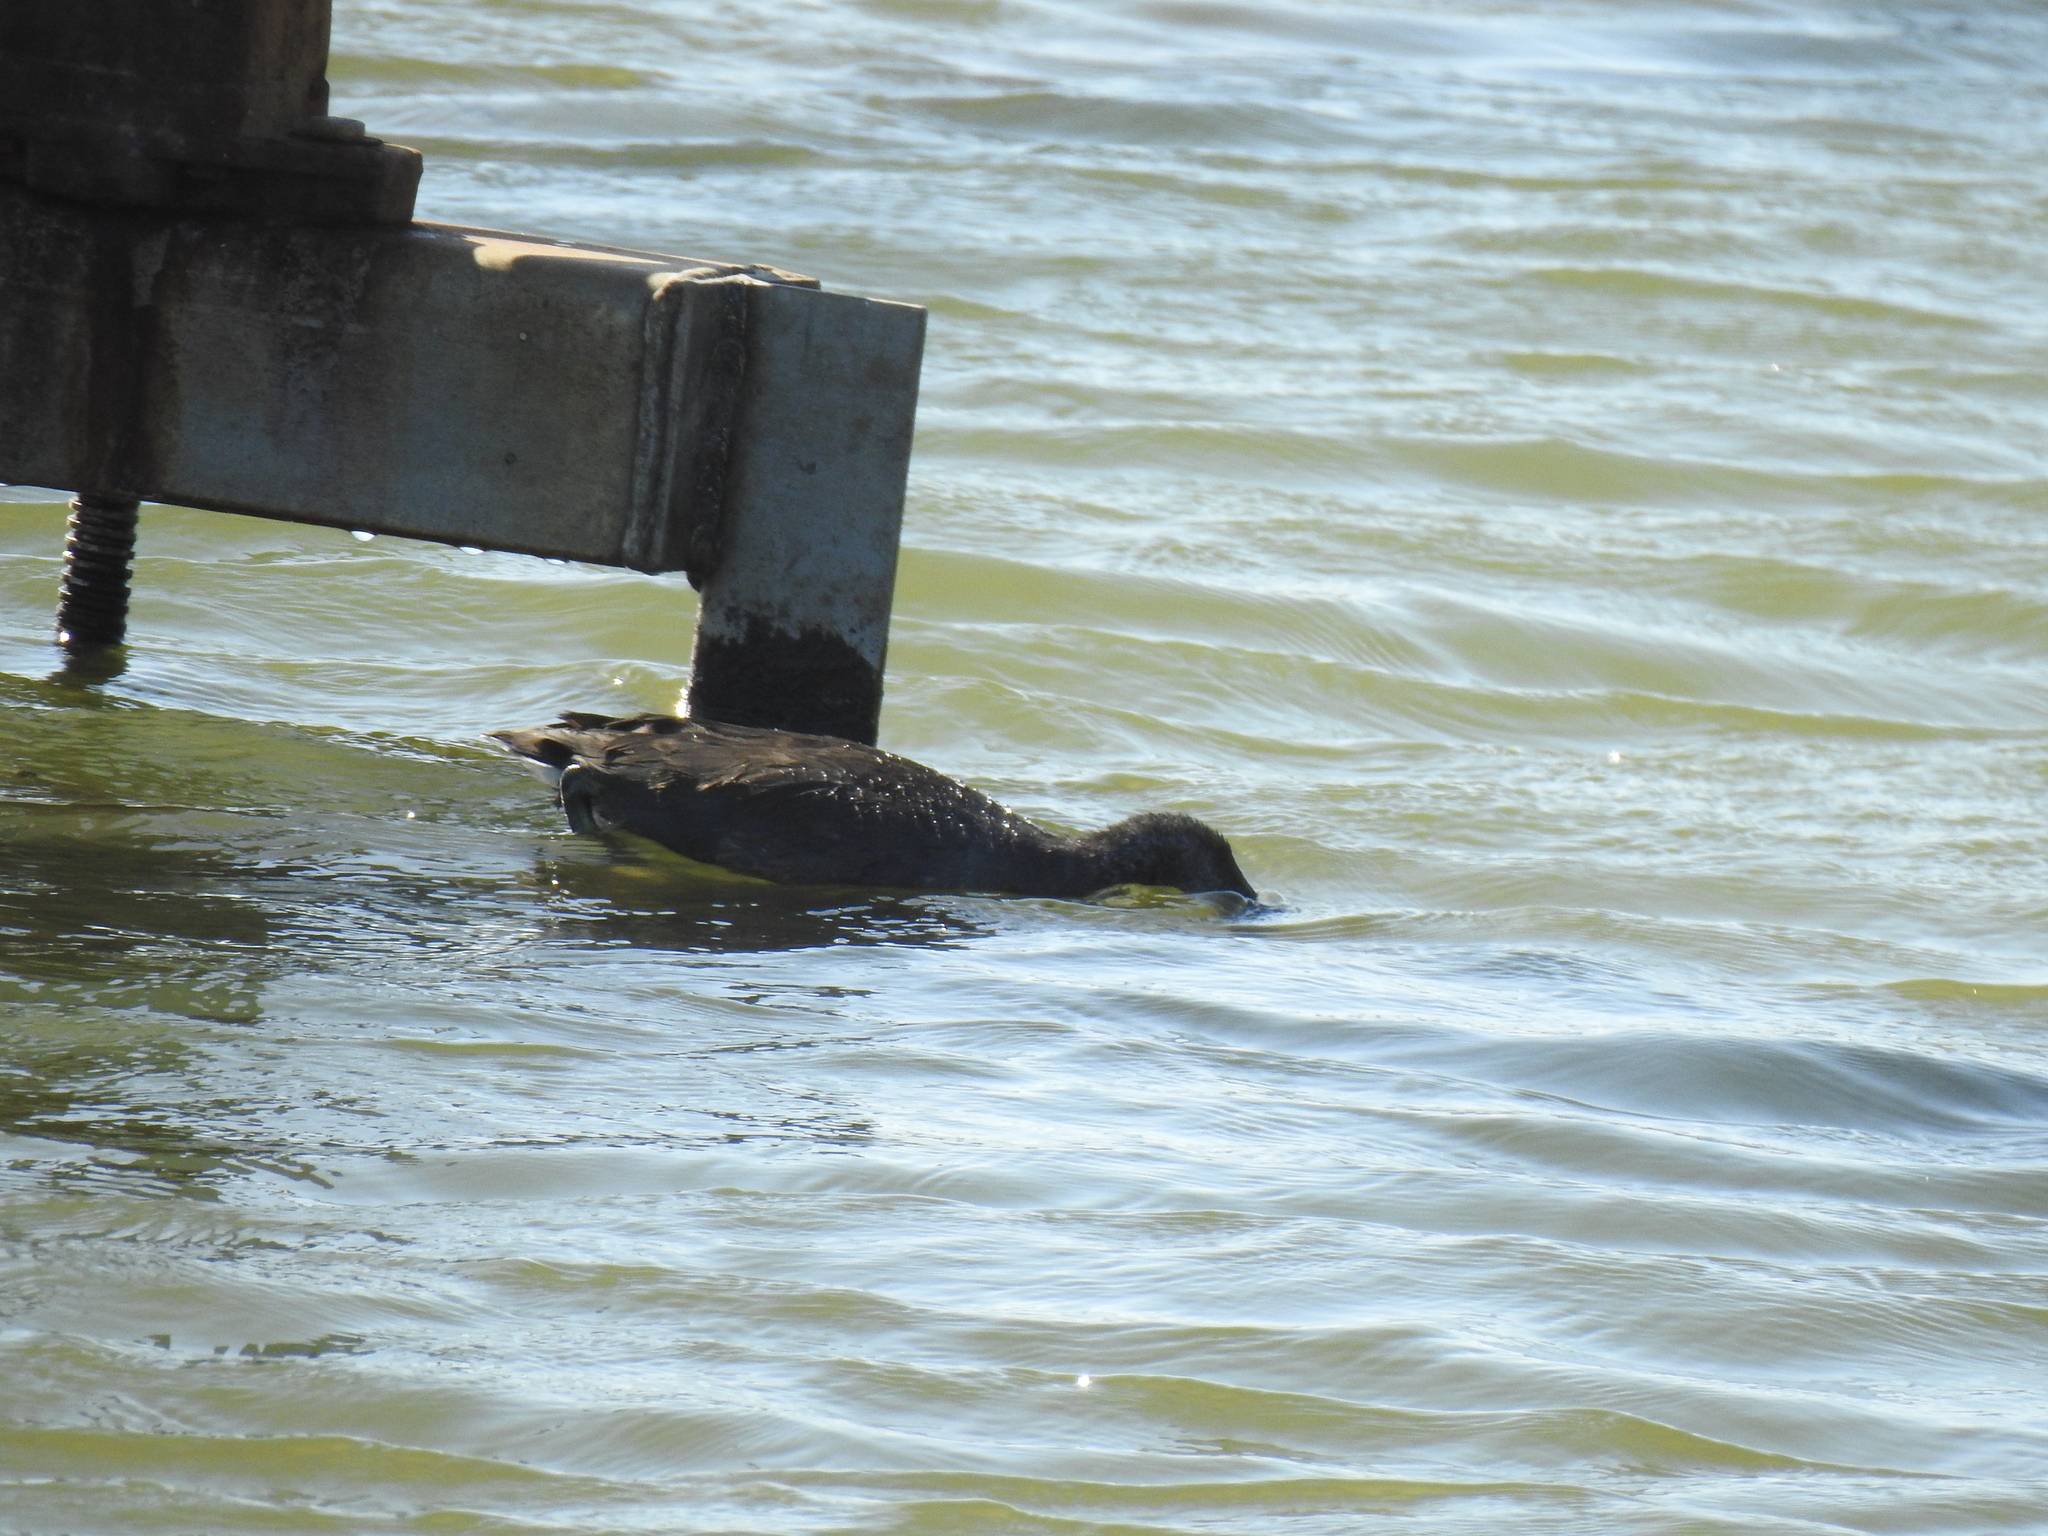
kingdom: Animalia
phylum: Chordata
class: Aves
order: Gruiformes
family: Rallidae
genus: Fulica
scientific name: Fulica americana
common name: American coot
